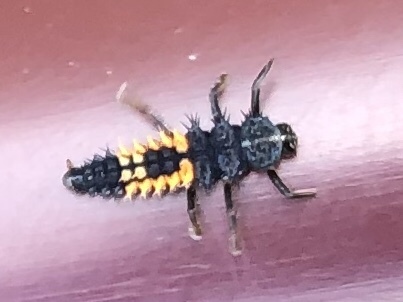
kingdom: Animalia
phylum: Arthropoda
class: Insecta
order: Coleoptera
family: Coccinellidae
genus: Harmonia
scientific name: Harmonia axyridis
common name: Harlequin ladybird
